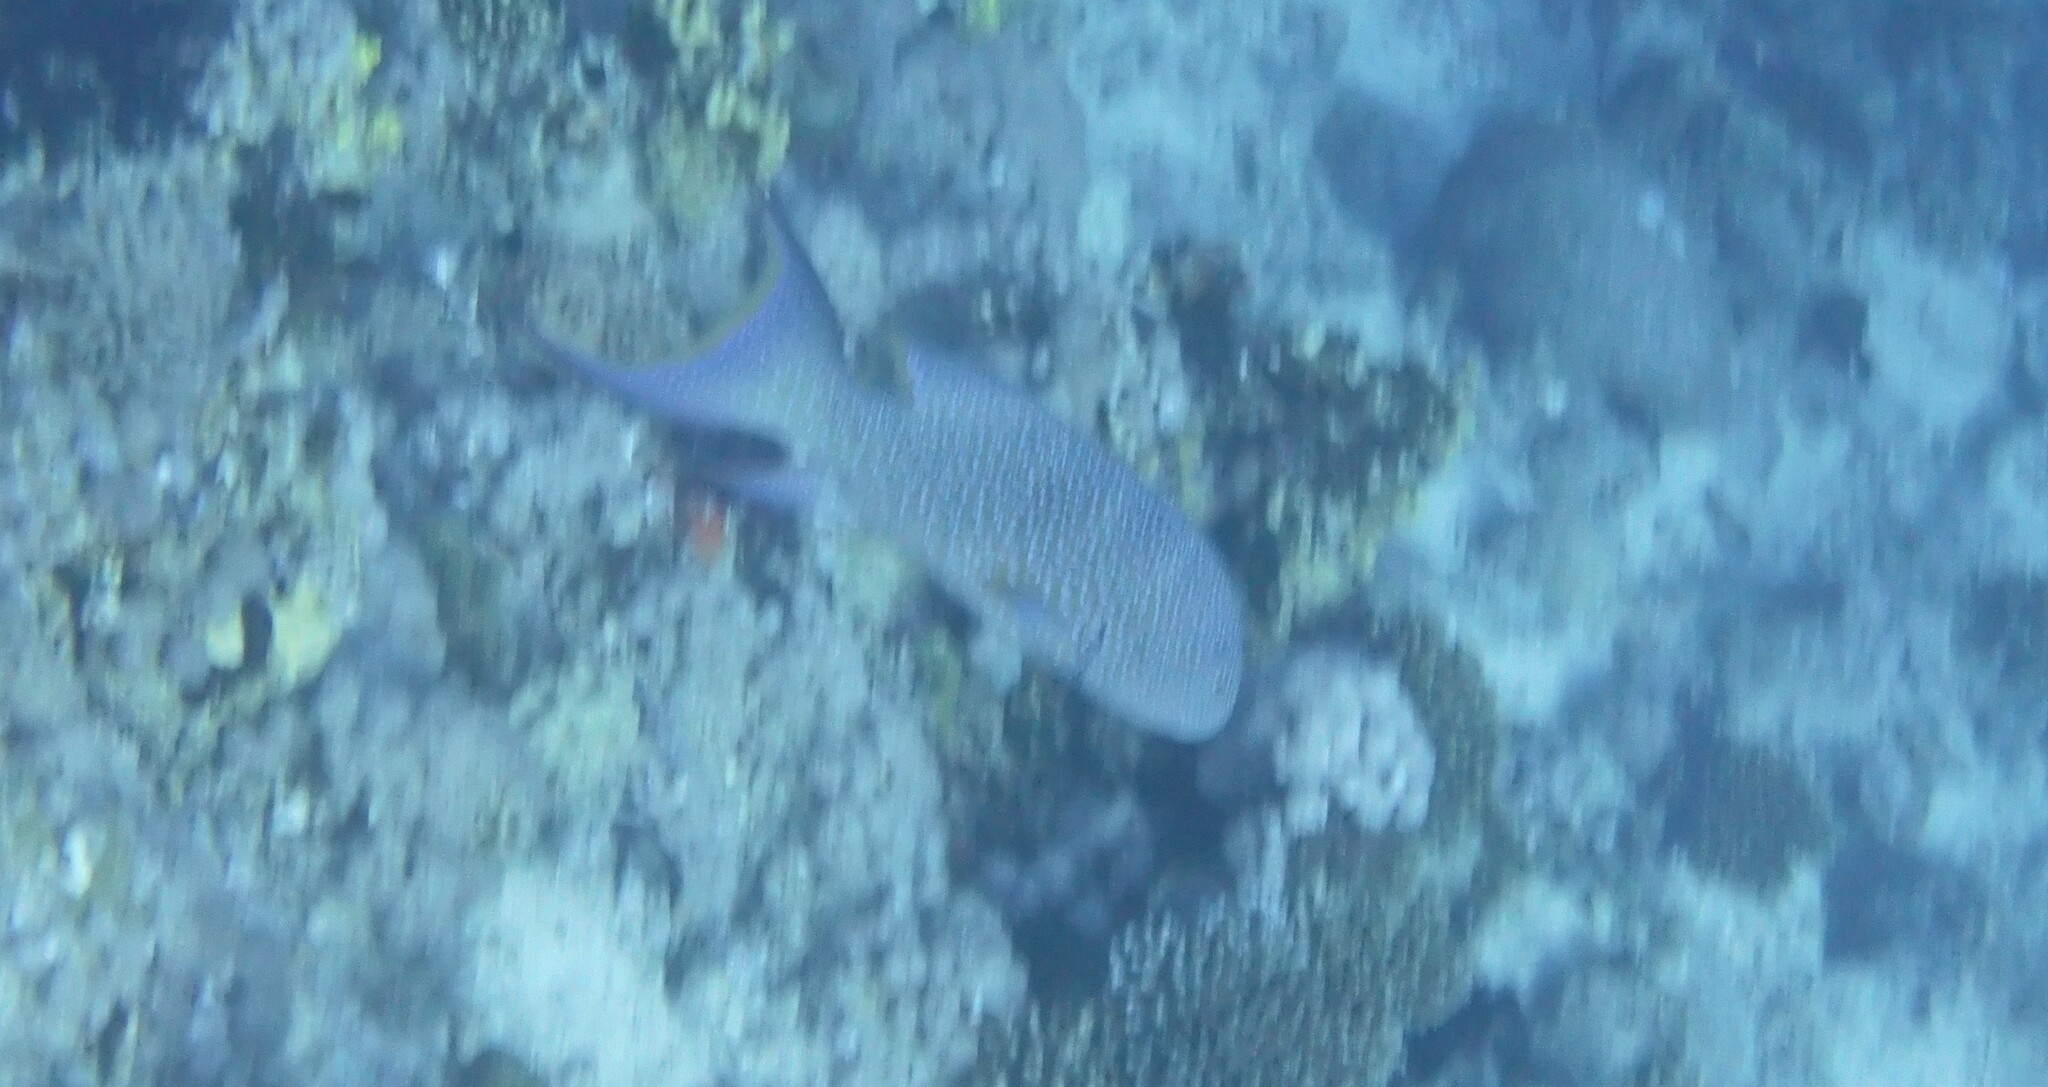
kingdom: Animalia
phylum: Chordata
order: Perciformes
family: Serranidae
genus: Variola
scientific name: Variola louti
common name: Yellow-edged lyretail
